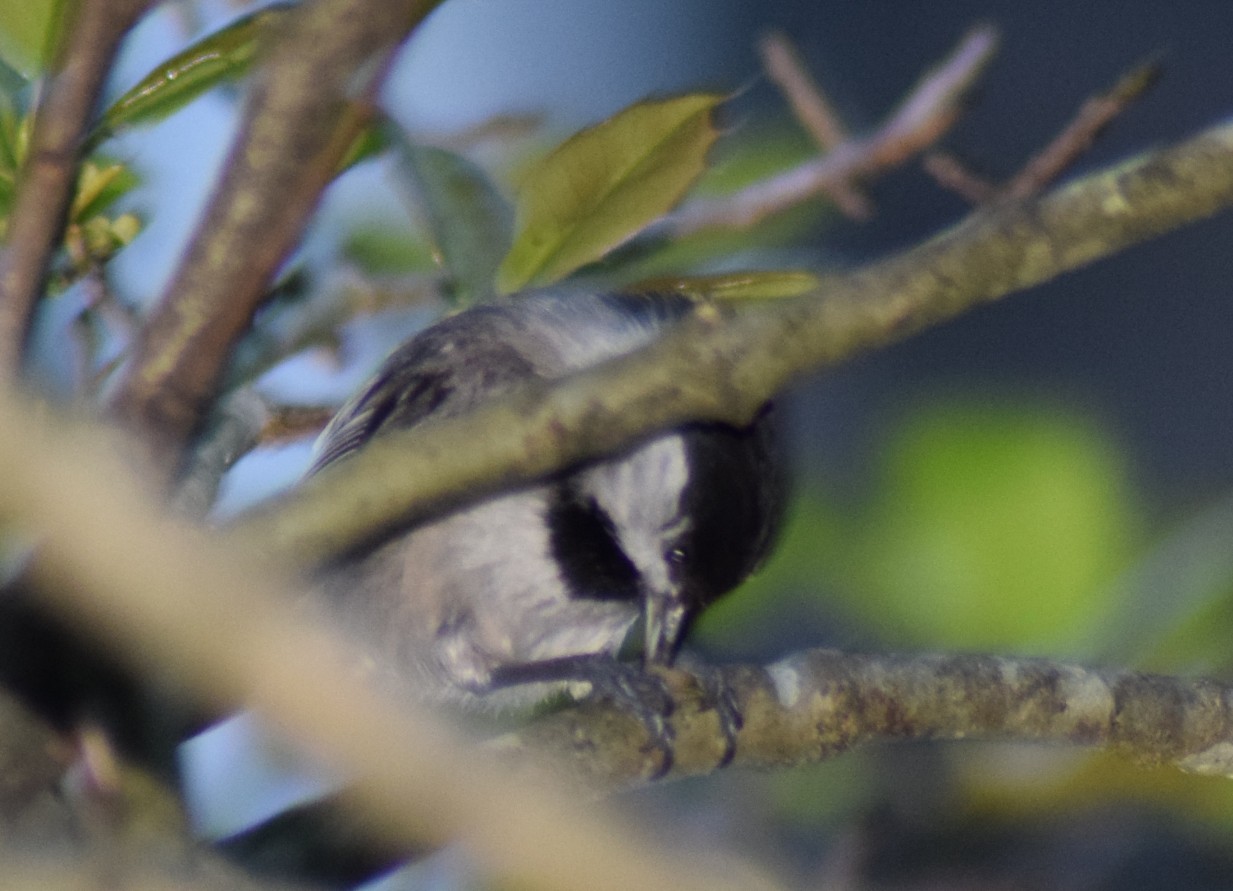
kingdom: Animalia
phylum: Chordata
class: Aves
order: Passeriformes
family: Paridae
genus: Poecile
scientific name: Poecile carolinensis
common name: Carolina chickadee
